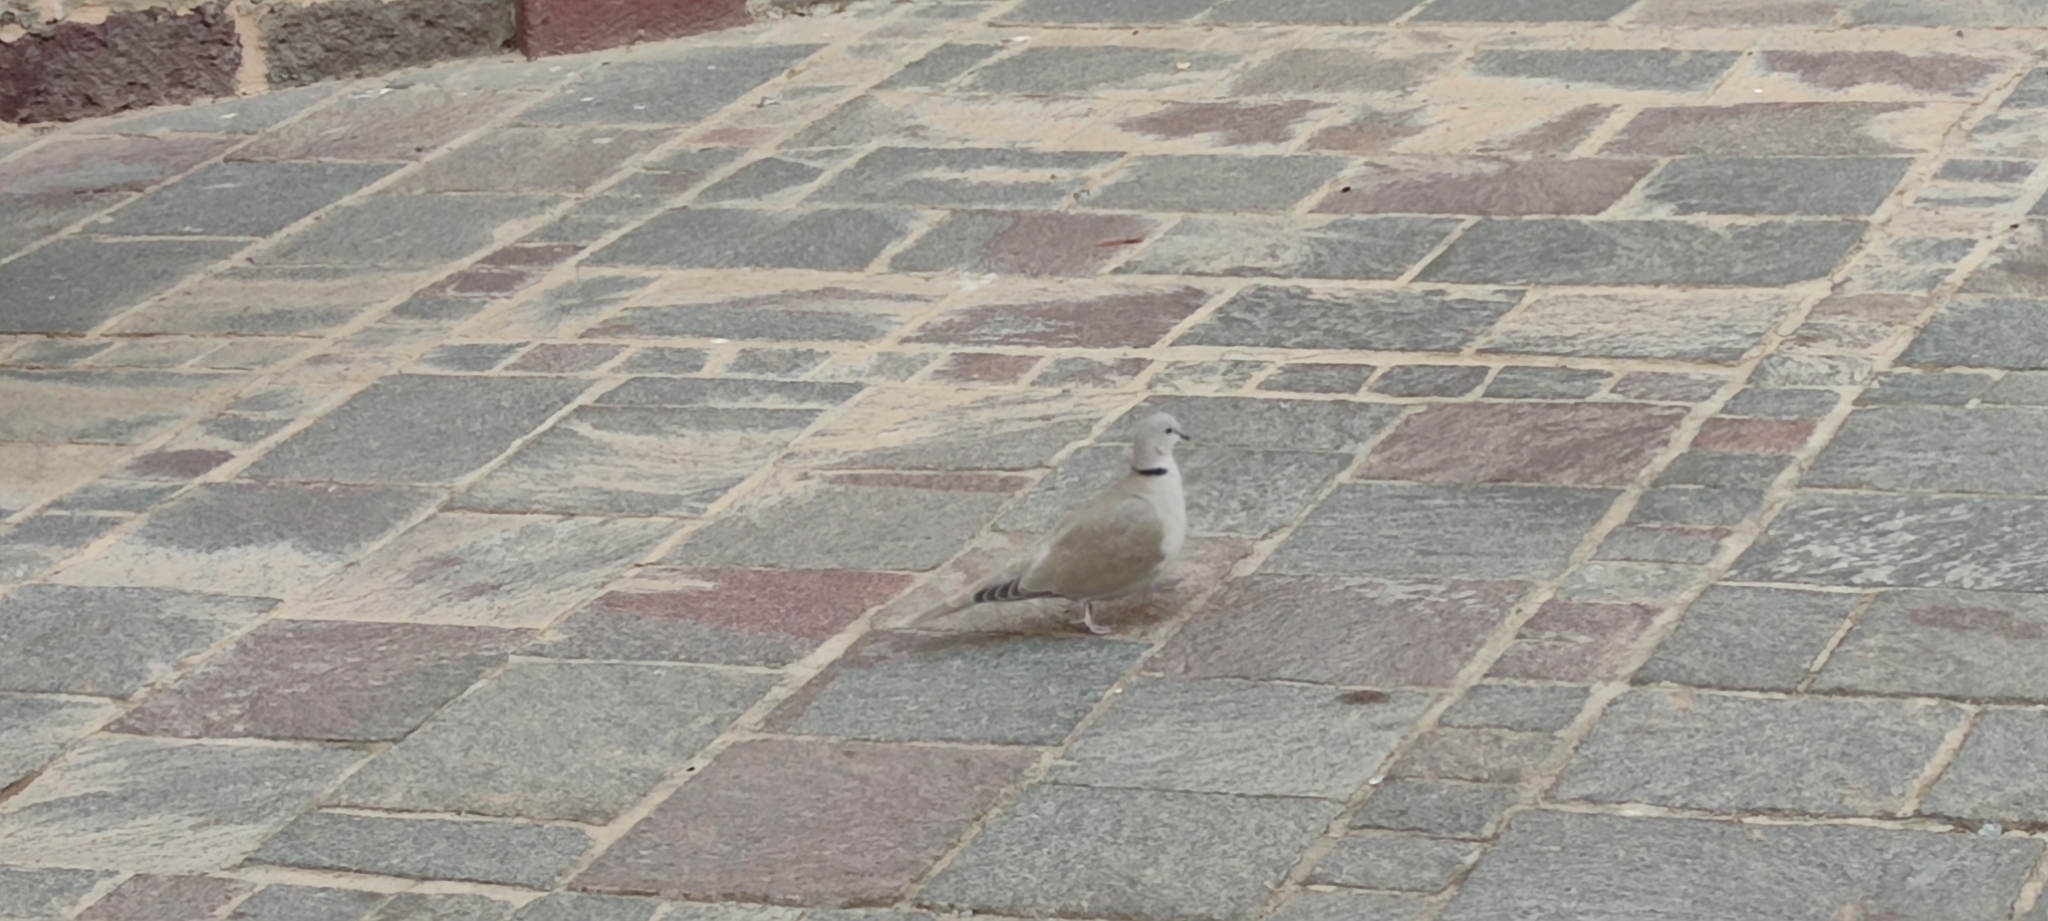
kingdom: Animalia
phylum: Chordata
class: Aves
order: Columbiformes
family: Columbidae
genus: Streptopelia
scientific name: Streptopelia decaocto
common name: Eurasian collared dove
